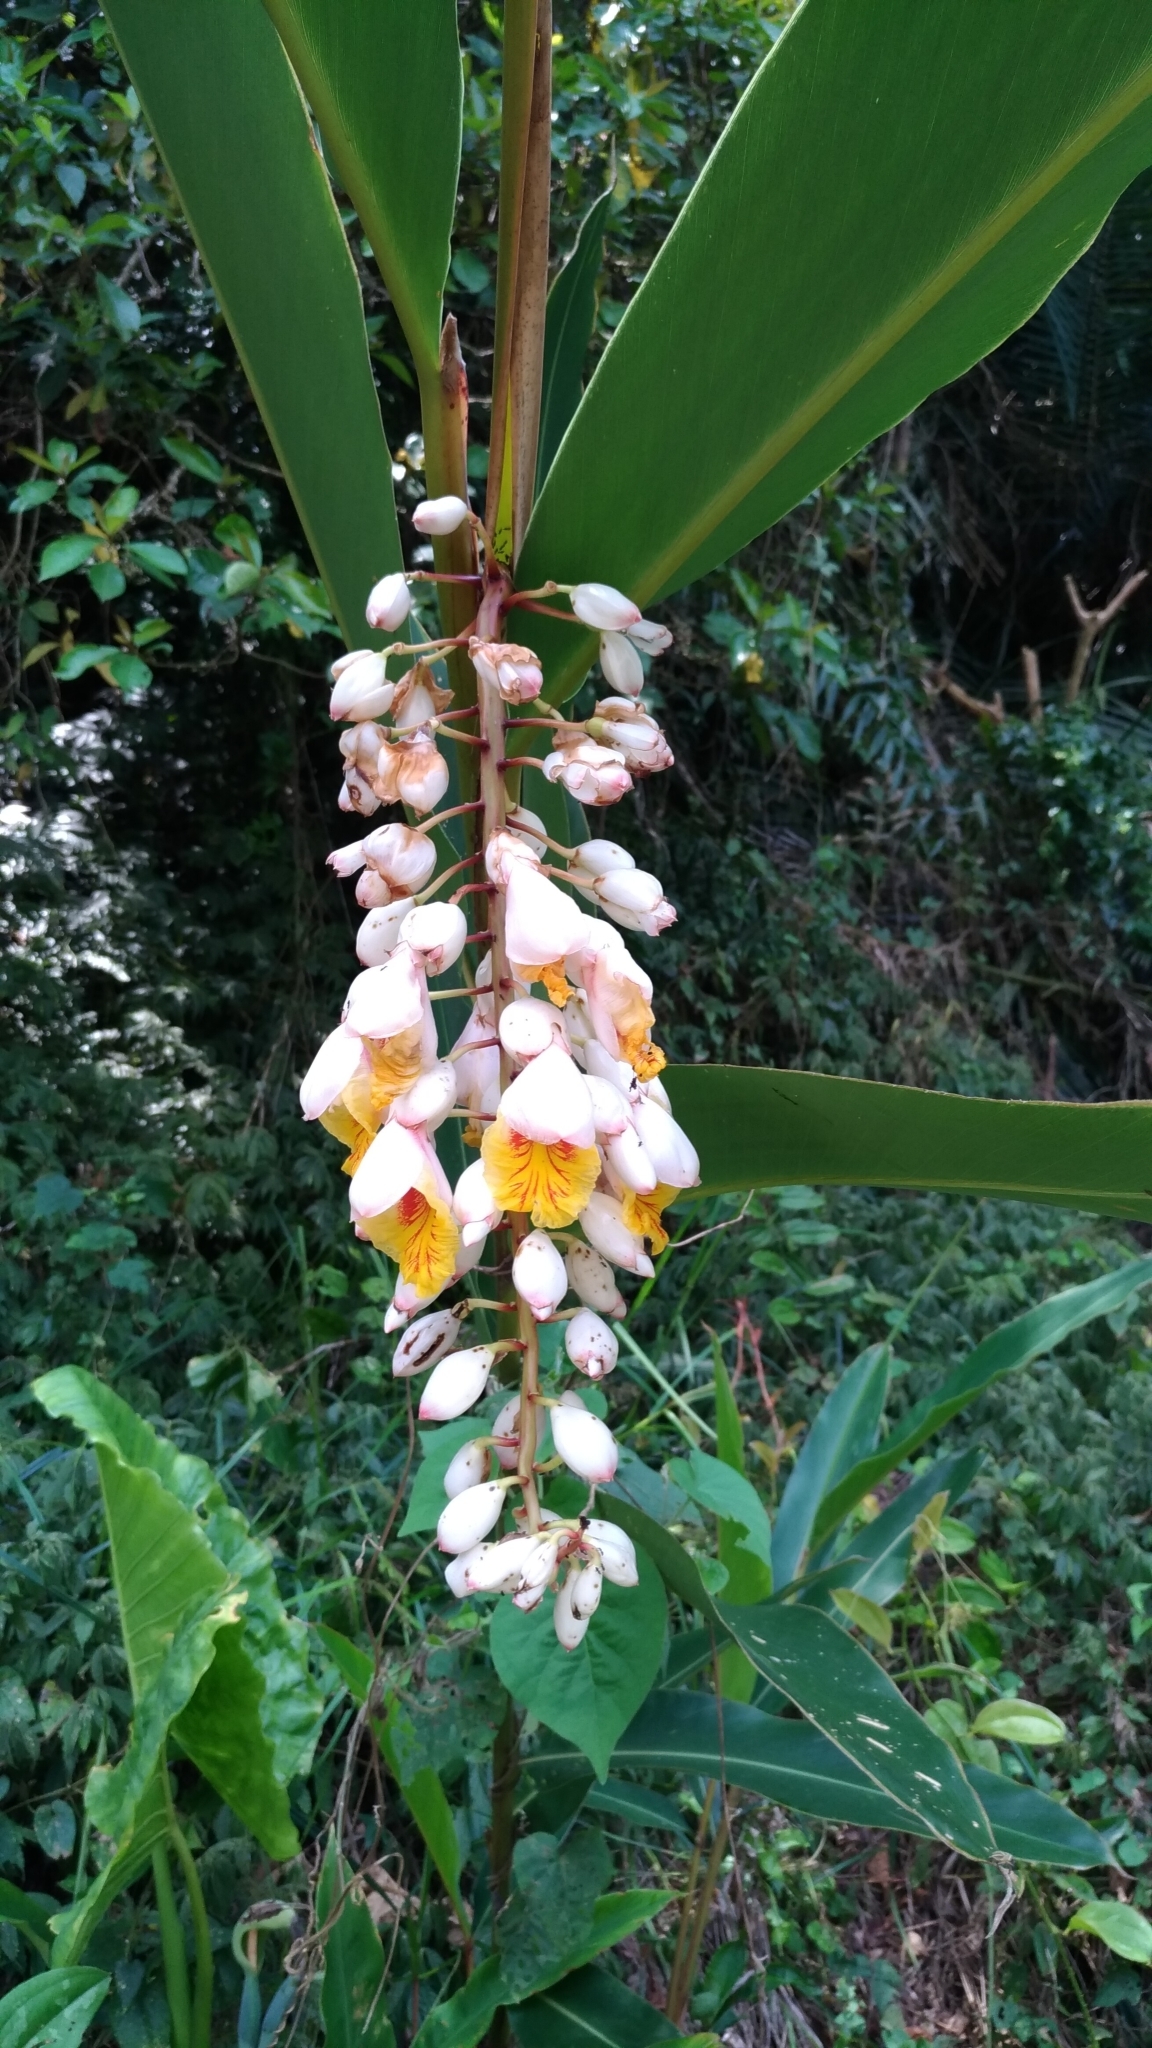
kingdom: Plantae
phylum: Tracheophyta
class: Liliopsida
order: Zingiberales
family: Zingiberaceae
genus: Alpinia
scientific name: Alpinia zerumbet
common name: Shellplant
